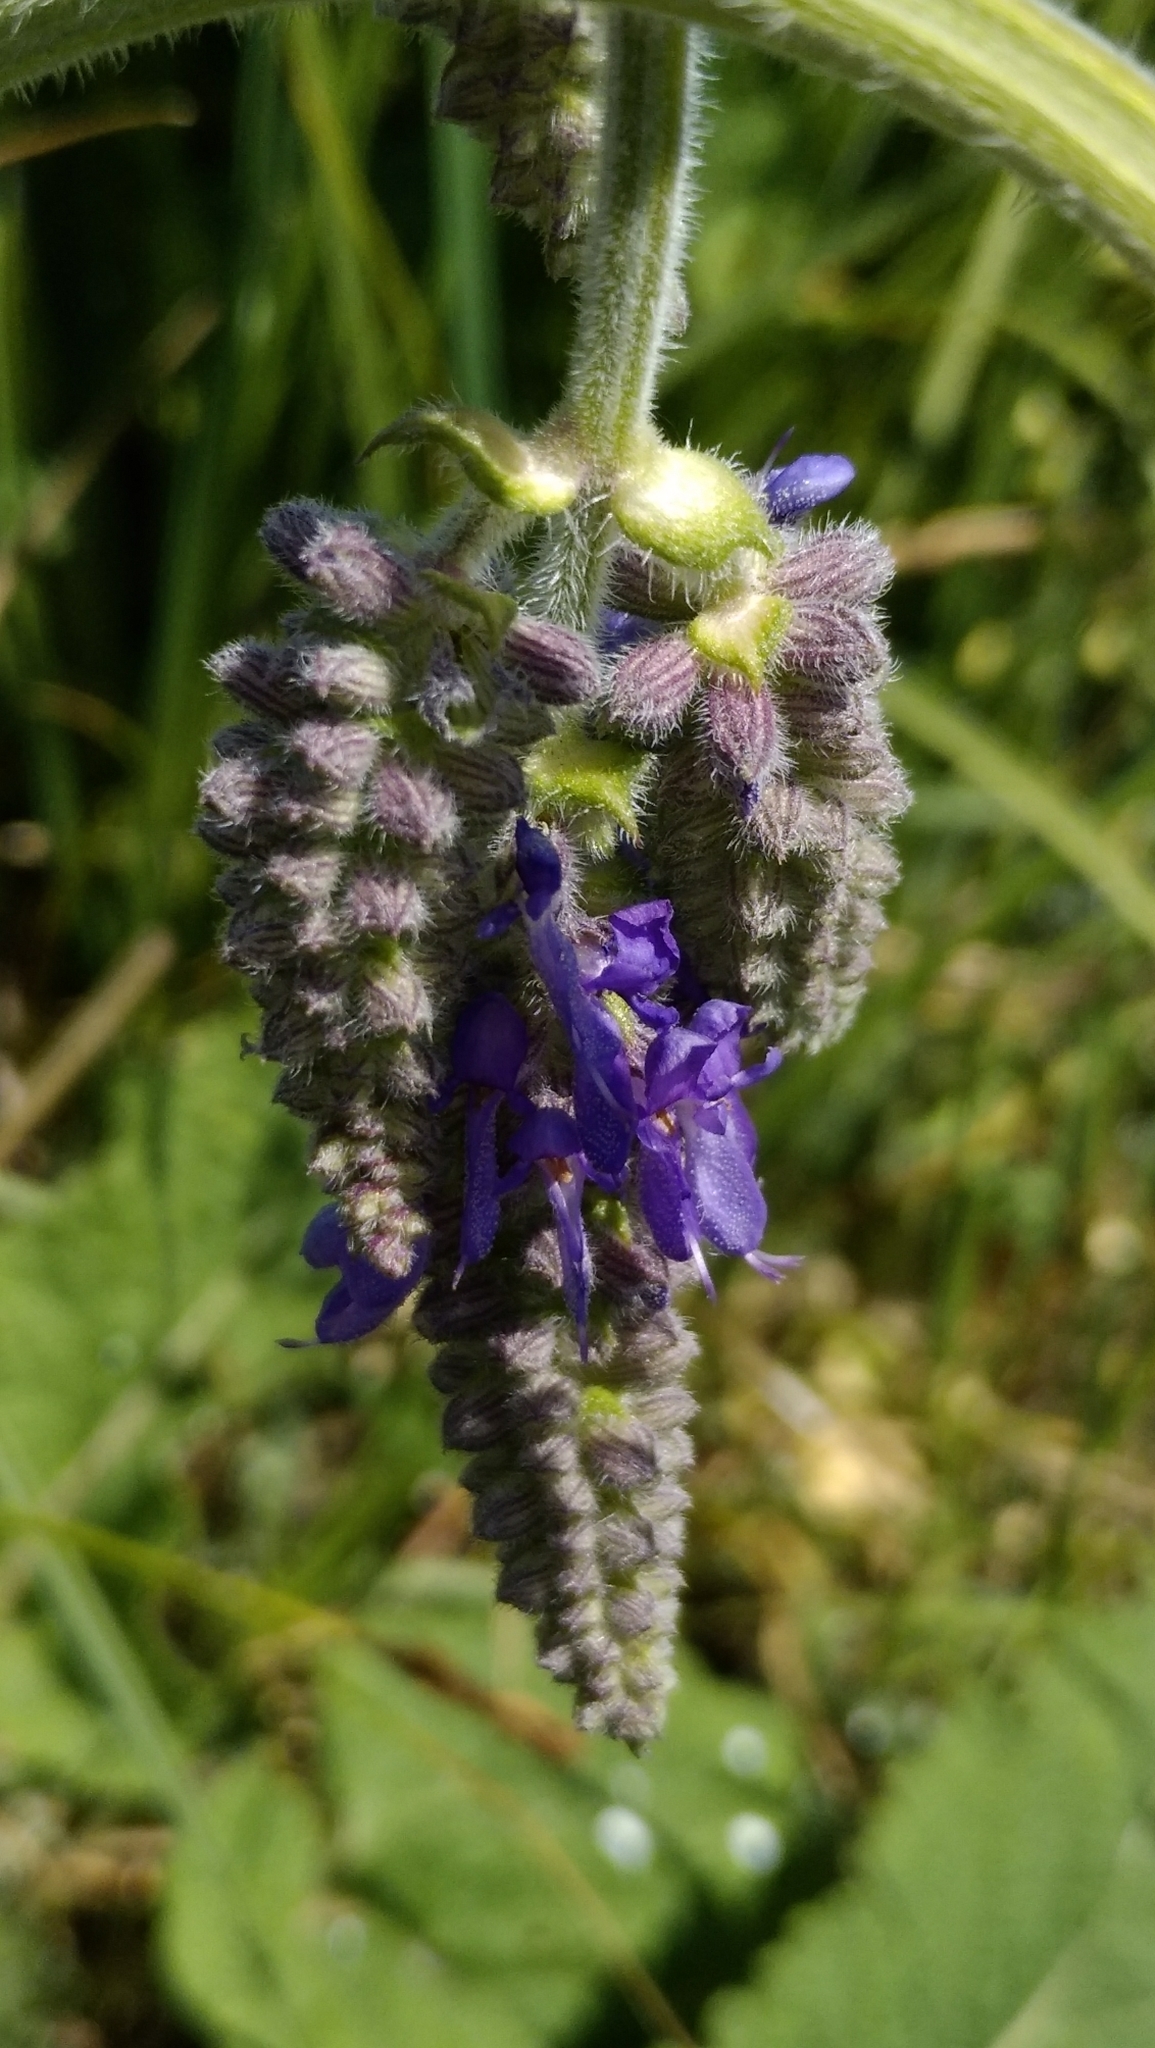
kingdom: Plantae
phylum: Tracheophyta
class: Magnoliopsida
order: Lamiales
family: Lamiaceae
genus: Salvia
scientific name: Salvia nutans
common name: Nodding sage
